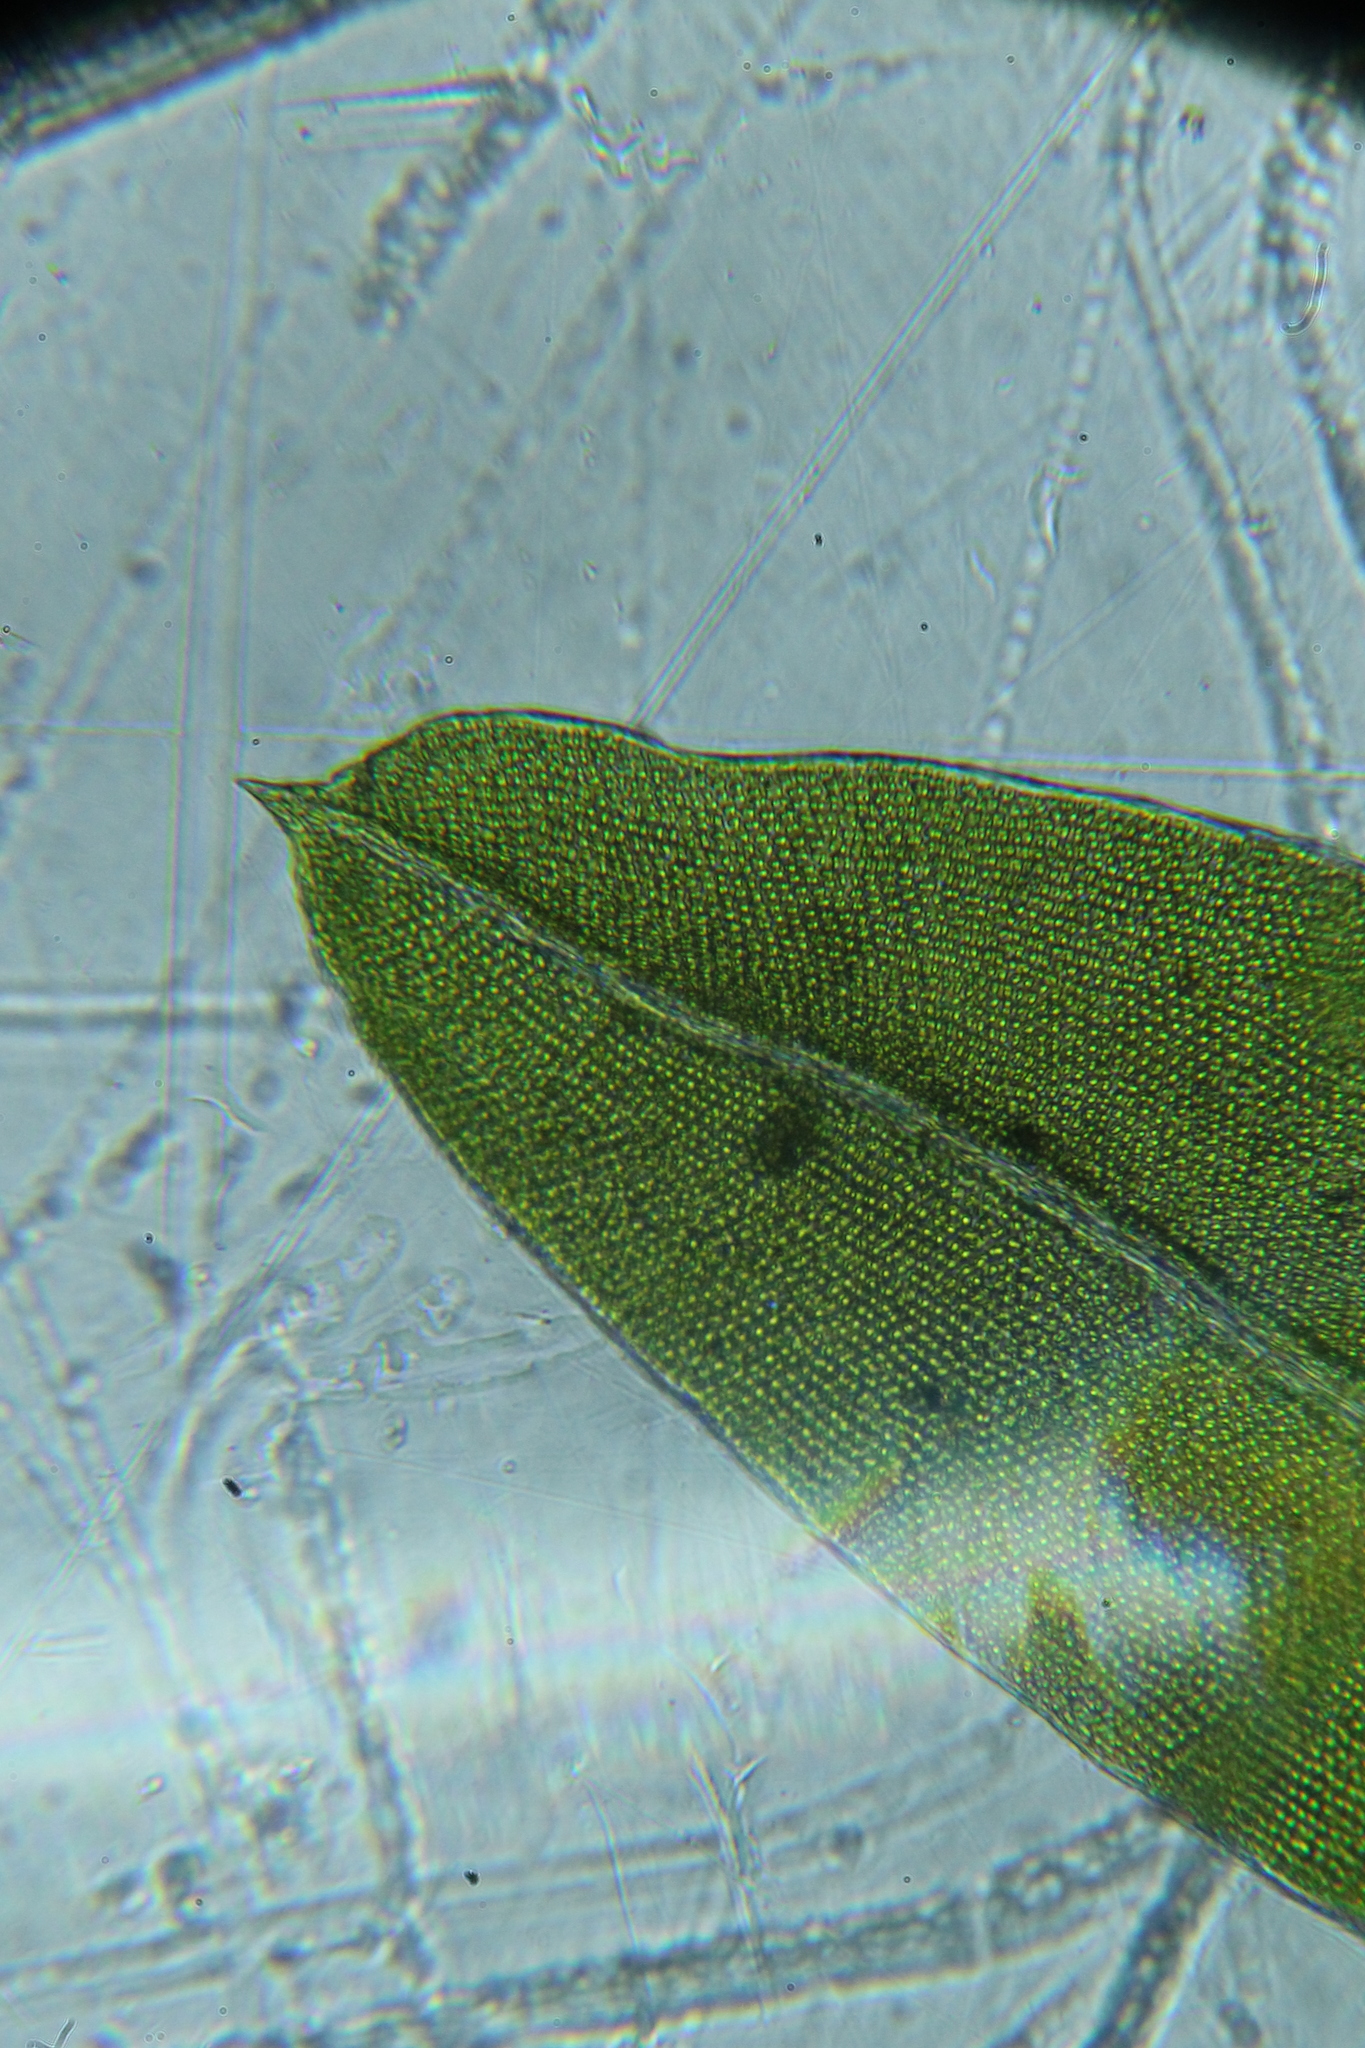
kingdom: Plantae
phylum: Bryophyta
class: Bryopsida
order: Dicranales
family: Fissidentaceae
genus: Fissidens
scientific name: Fissidens megalotis
